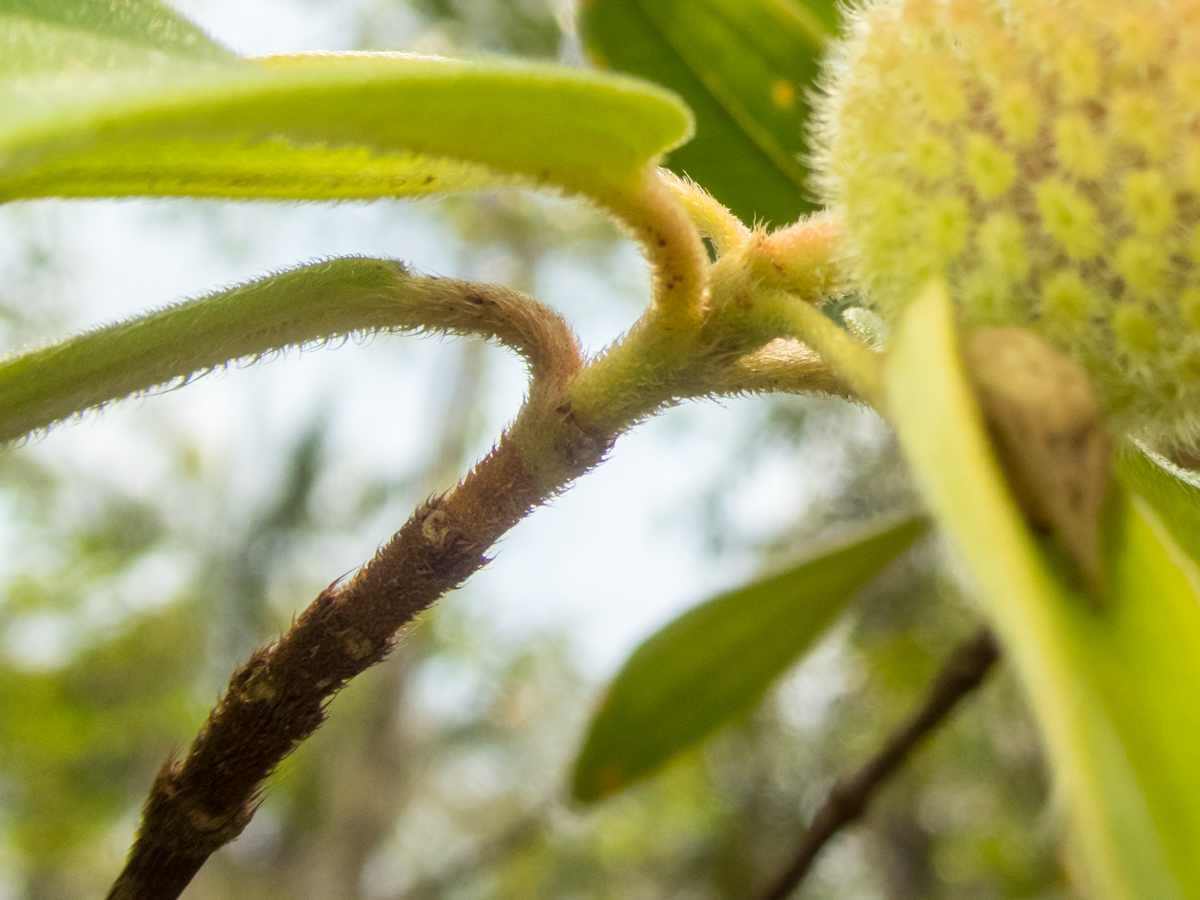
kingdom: Plantae
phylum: Tracheophyta
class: Magnoliopsida
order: Myrtales
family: Melastomataceae
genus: Melastoma
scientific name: Melastoma saigonense
